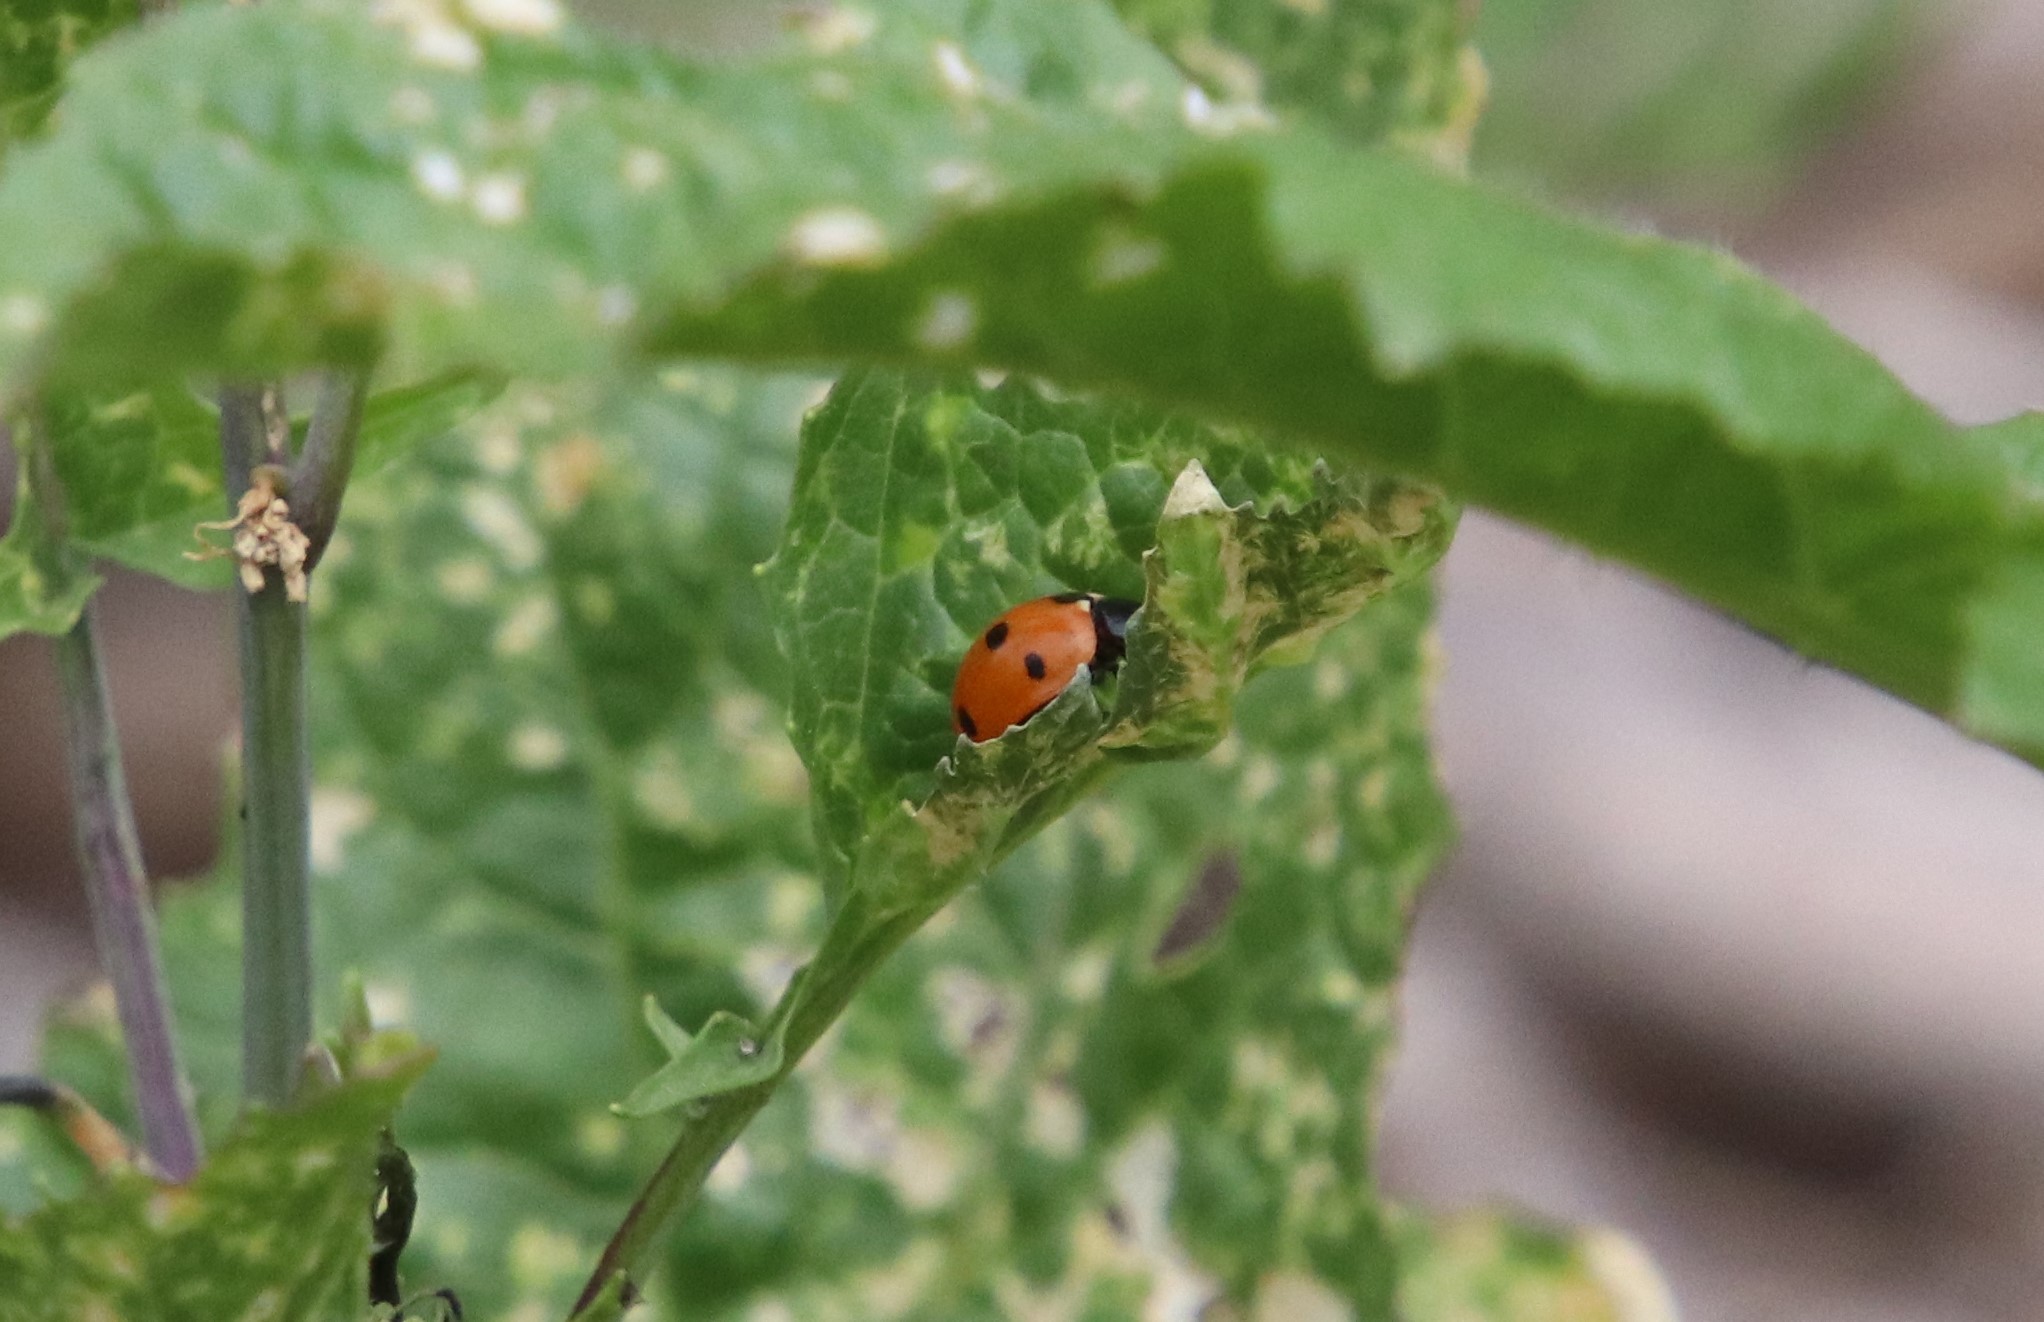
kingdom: Animalia
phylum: Arthropoda
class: Insecta
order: Coleoptera
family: Coccinellidae
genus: Coccinella
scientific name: Coccinella septempunctata
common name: Sevenspotted lady beetle
